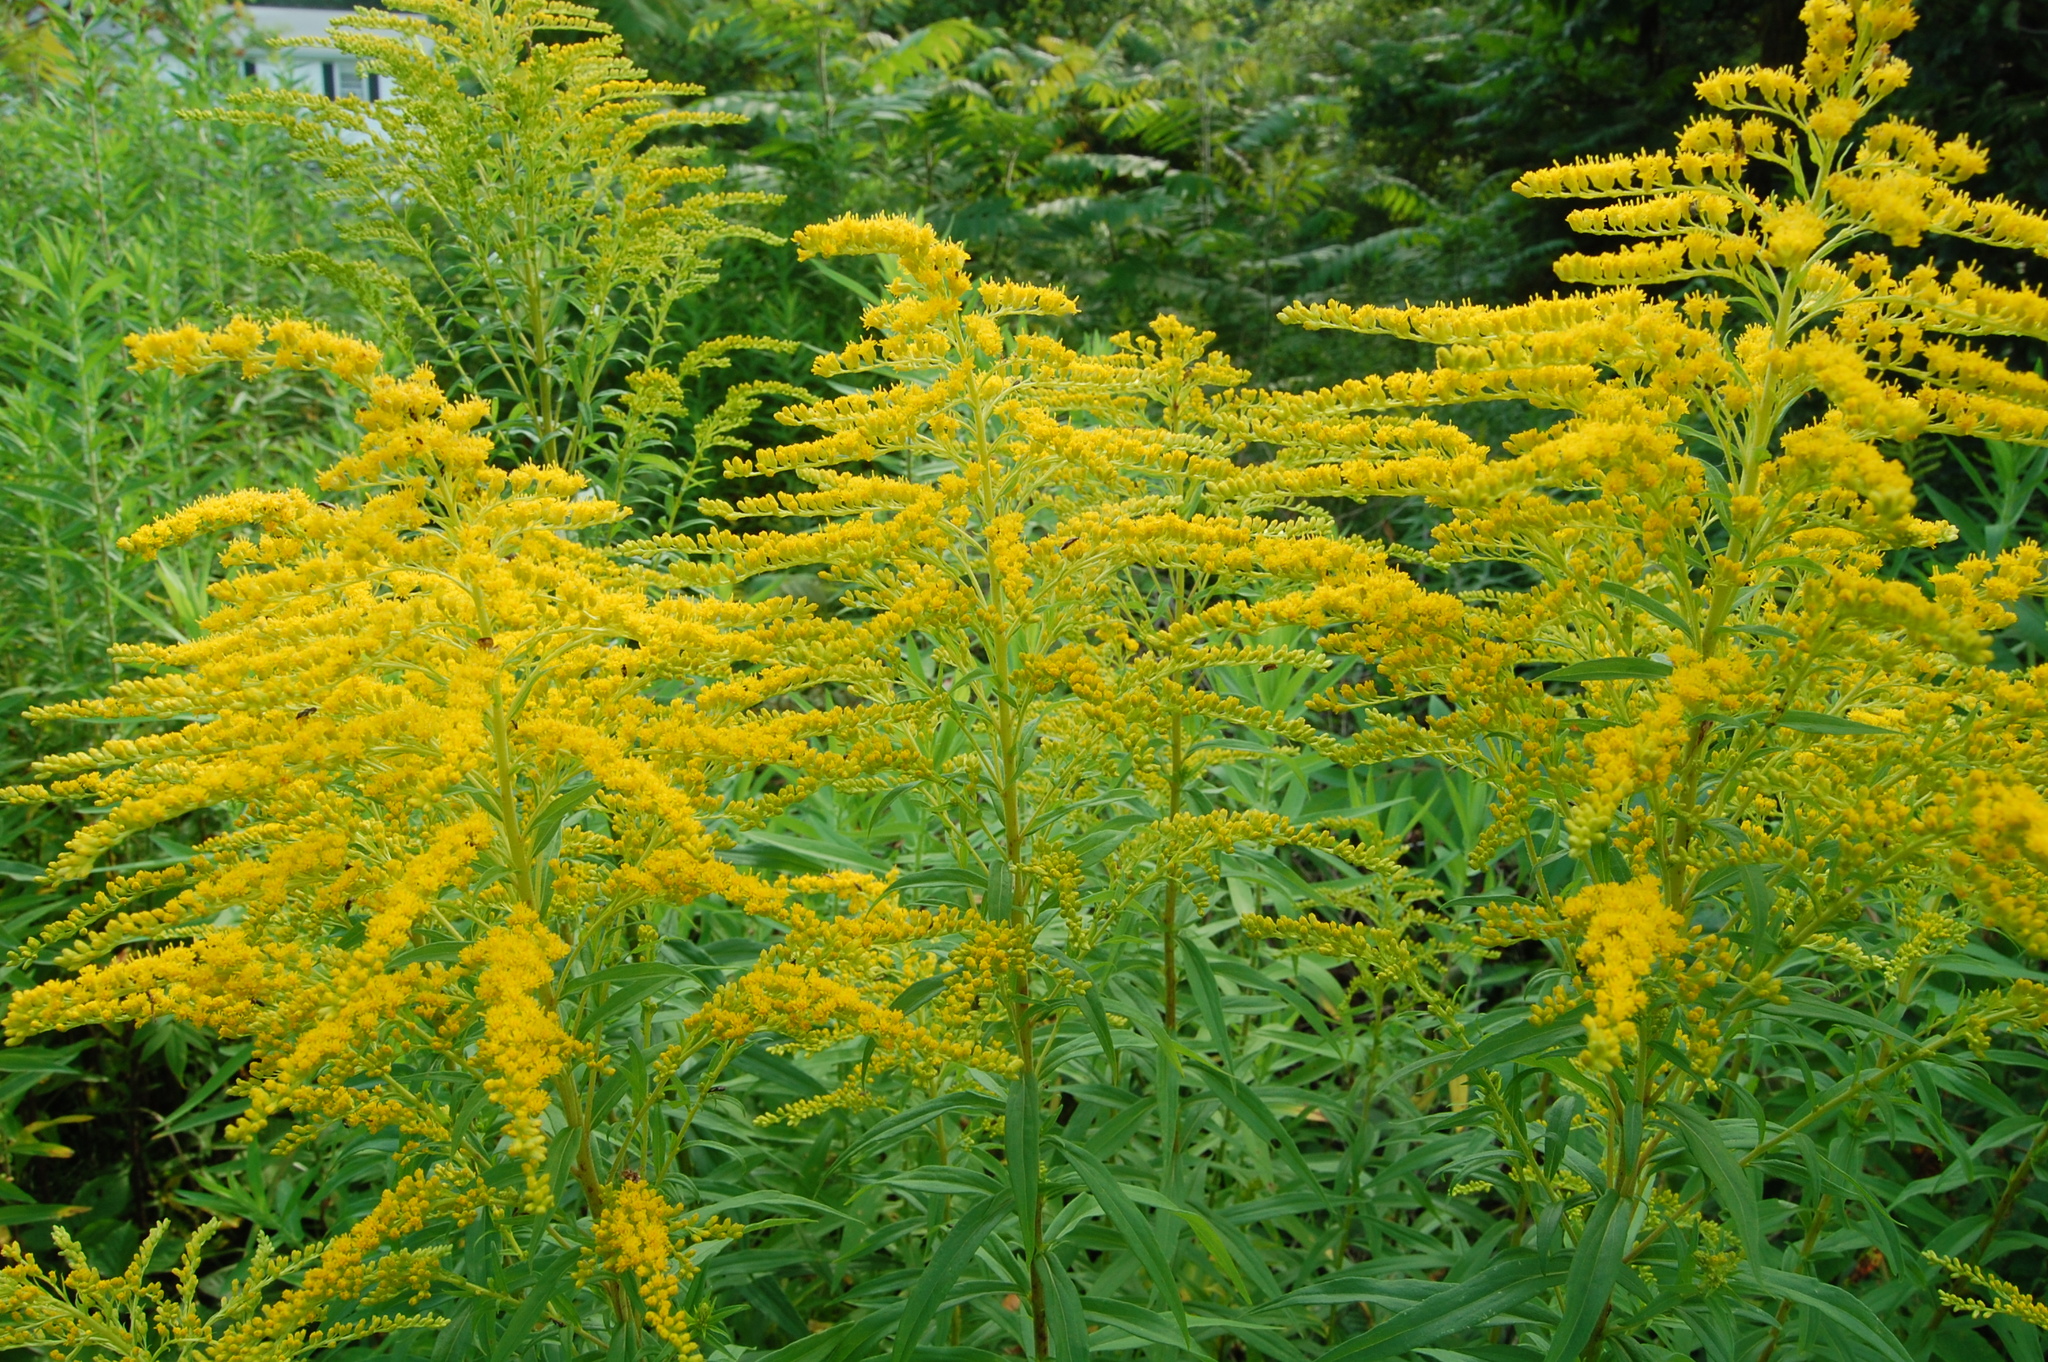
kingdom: Plantae
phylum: Tracheophyta
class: Magnoliopsida
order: Asterales
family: Asteraceae
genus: Solidago
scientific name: Solidago juncea
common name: Early goldenrod
